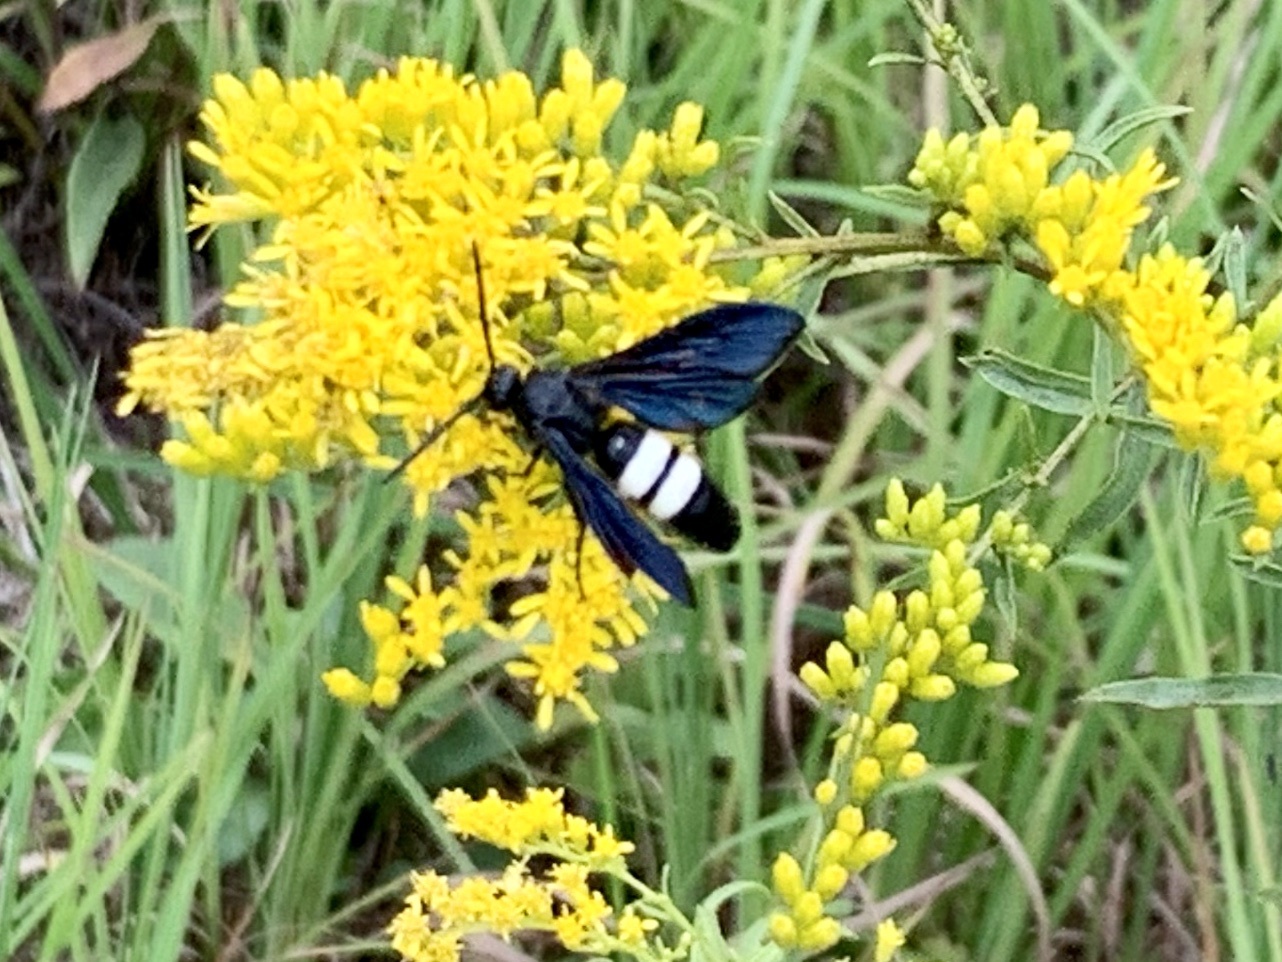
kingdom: Animalia
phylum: Arthropoda
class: Insecta
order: Hymenoptera
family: Scoliidae
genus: Scolia
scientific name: Scolia bicincta
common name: Double-banded scoliid wasp
